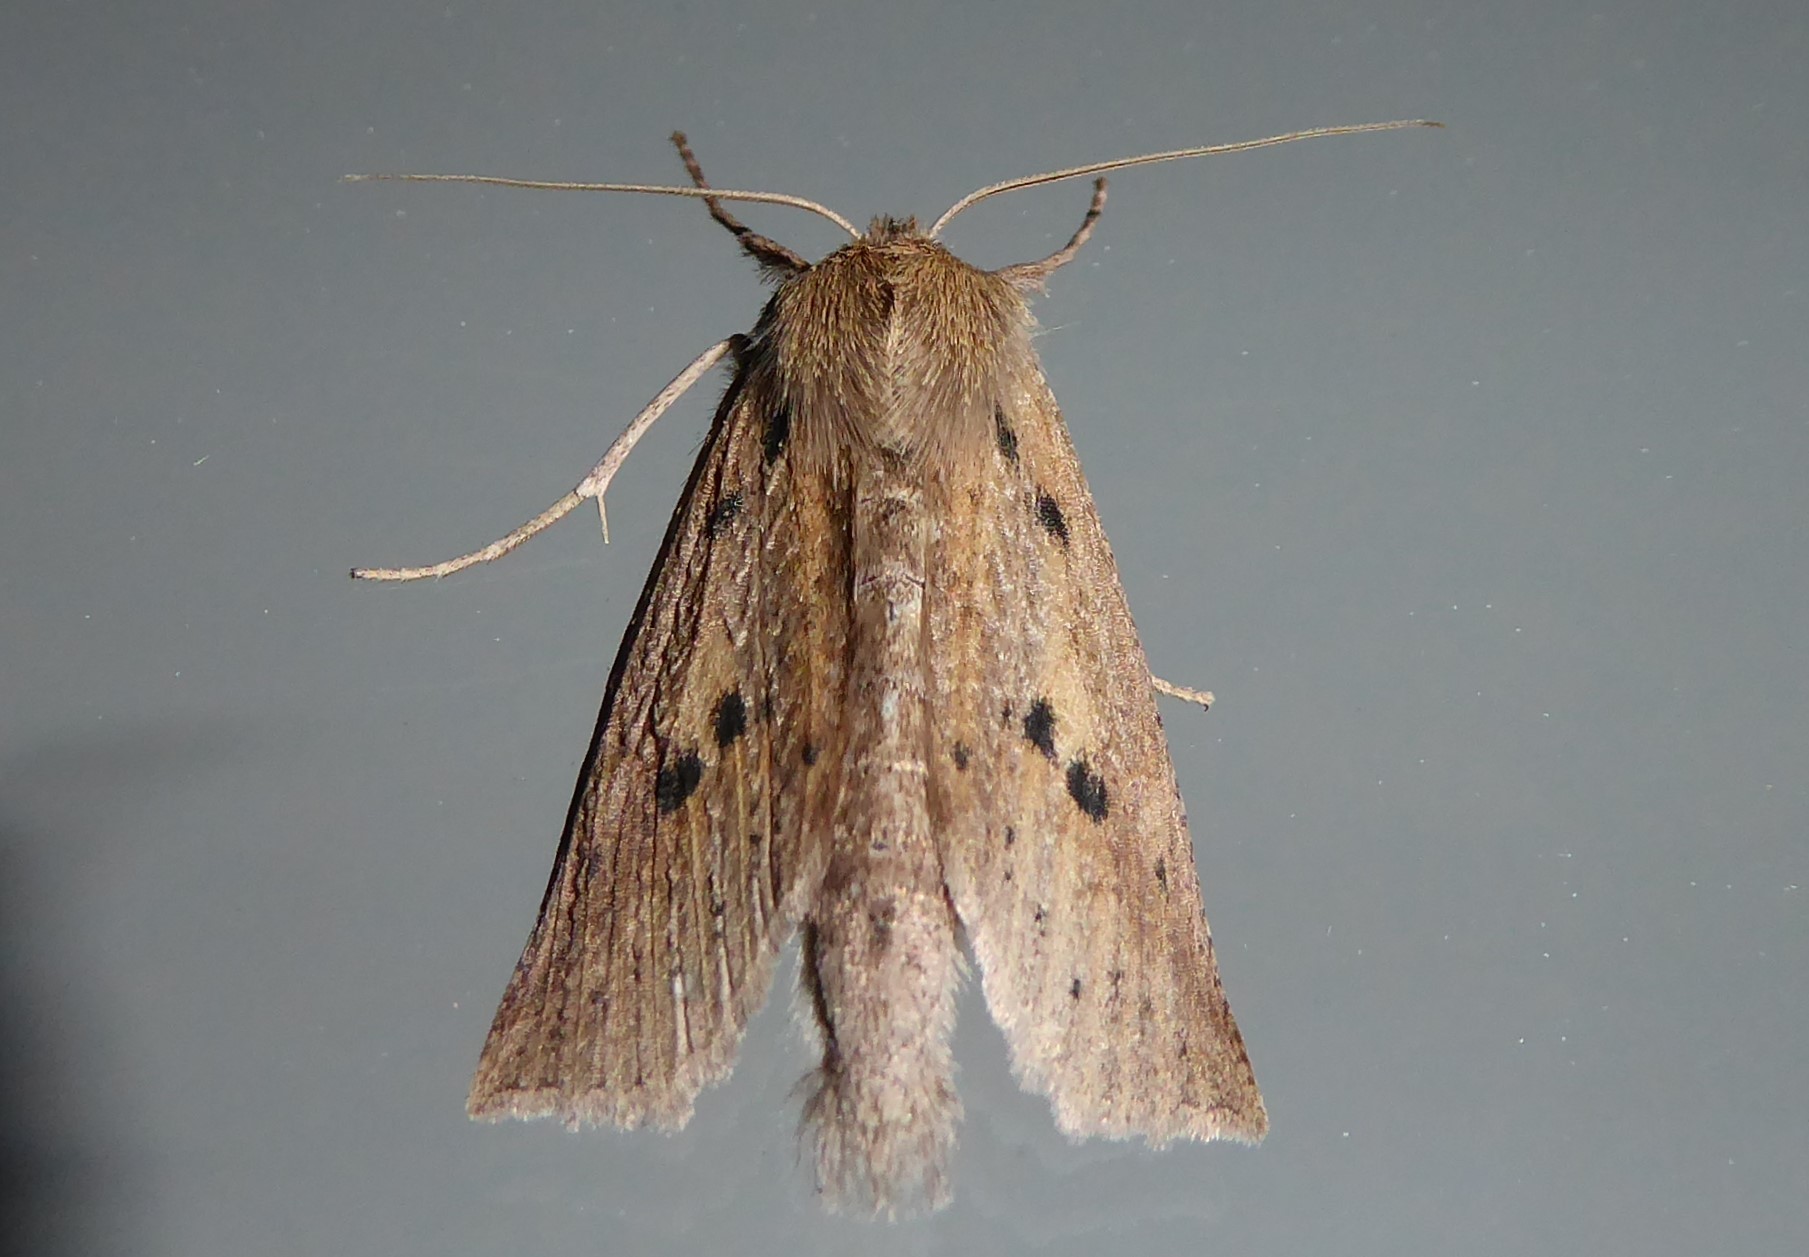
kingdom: Animalia
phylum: Arthropoda
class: Insecta
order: Lepidoptera
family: Geometridae
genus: Declana
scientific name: Declana leptomera
